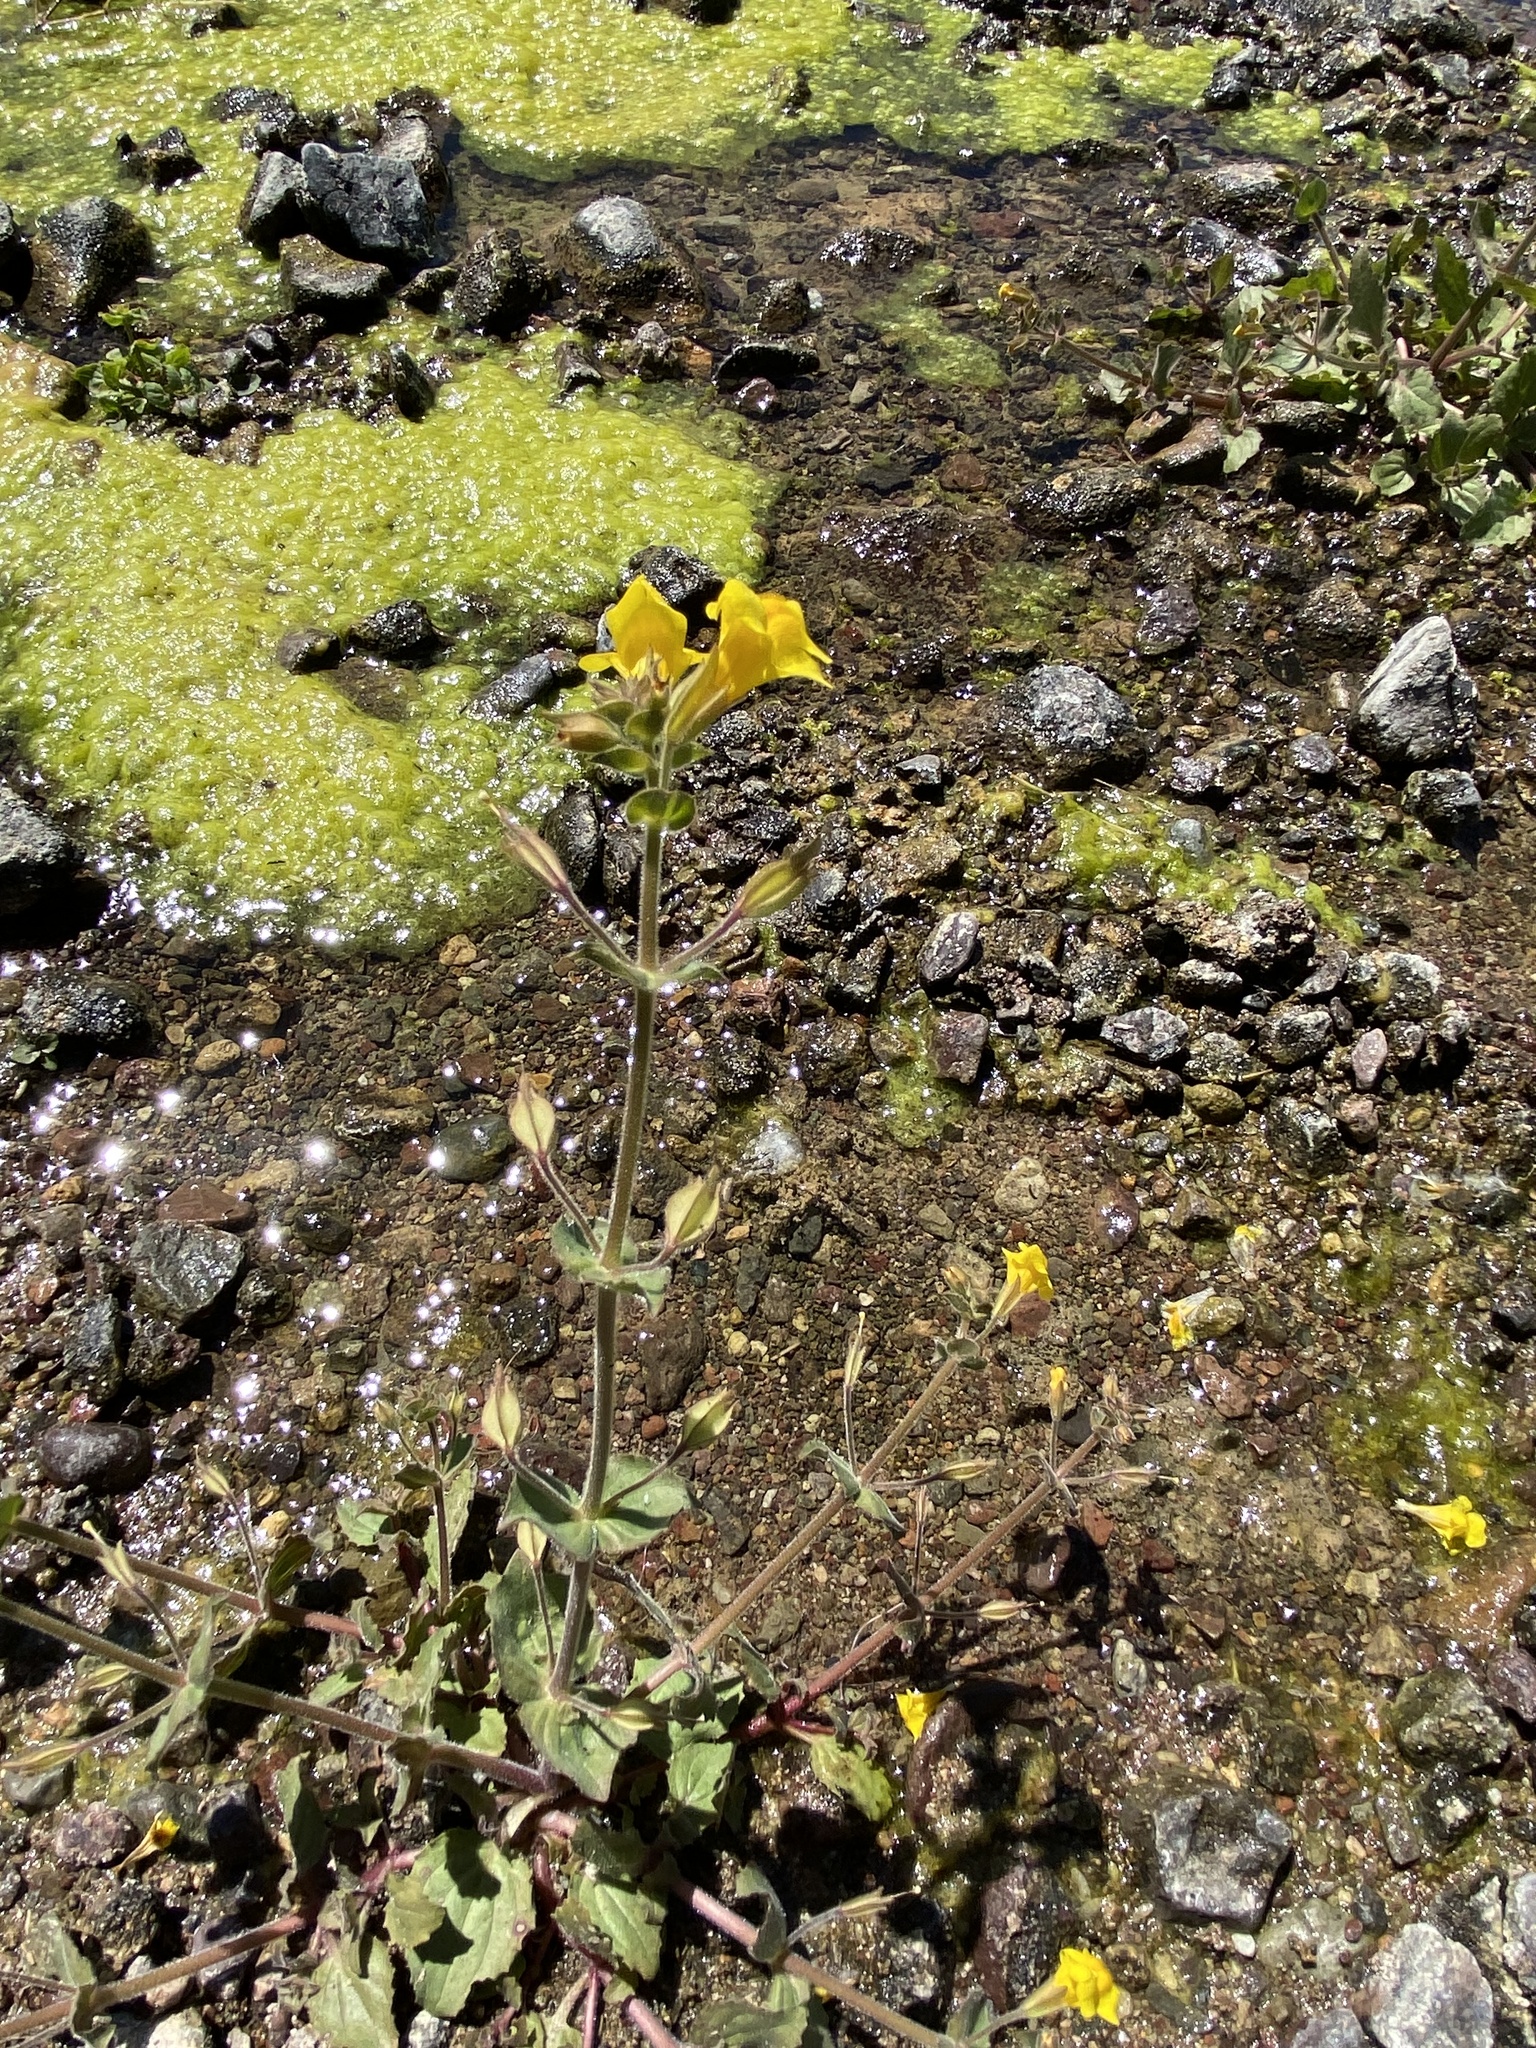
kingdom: Plantae
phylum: Tracheophyta
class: Magnoliopsida
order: Lamiales
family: Phrymaceae
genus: Erythranthe
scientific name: Erythranthe guttata
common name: Monkeyflower
